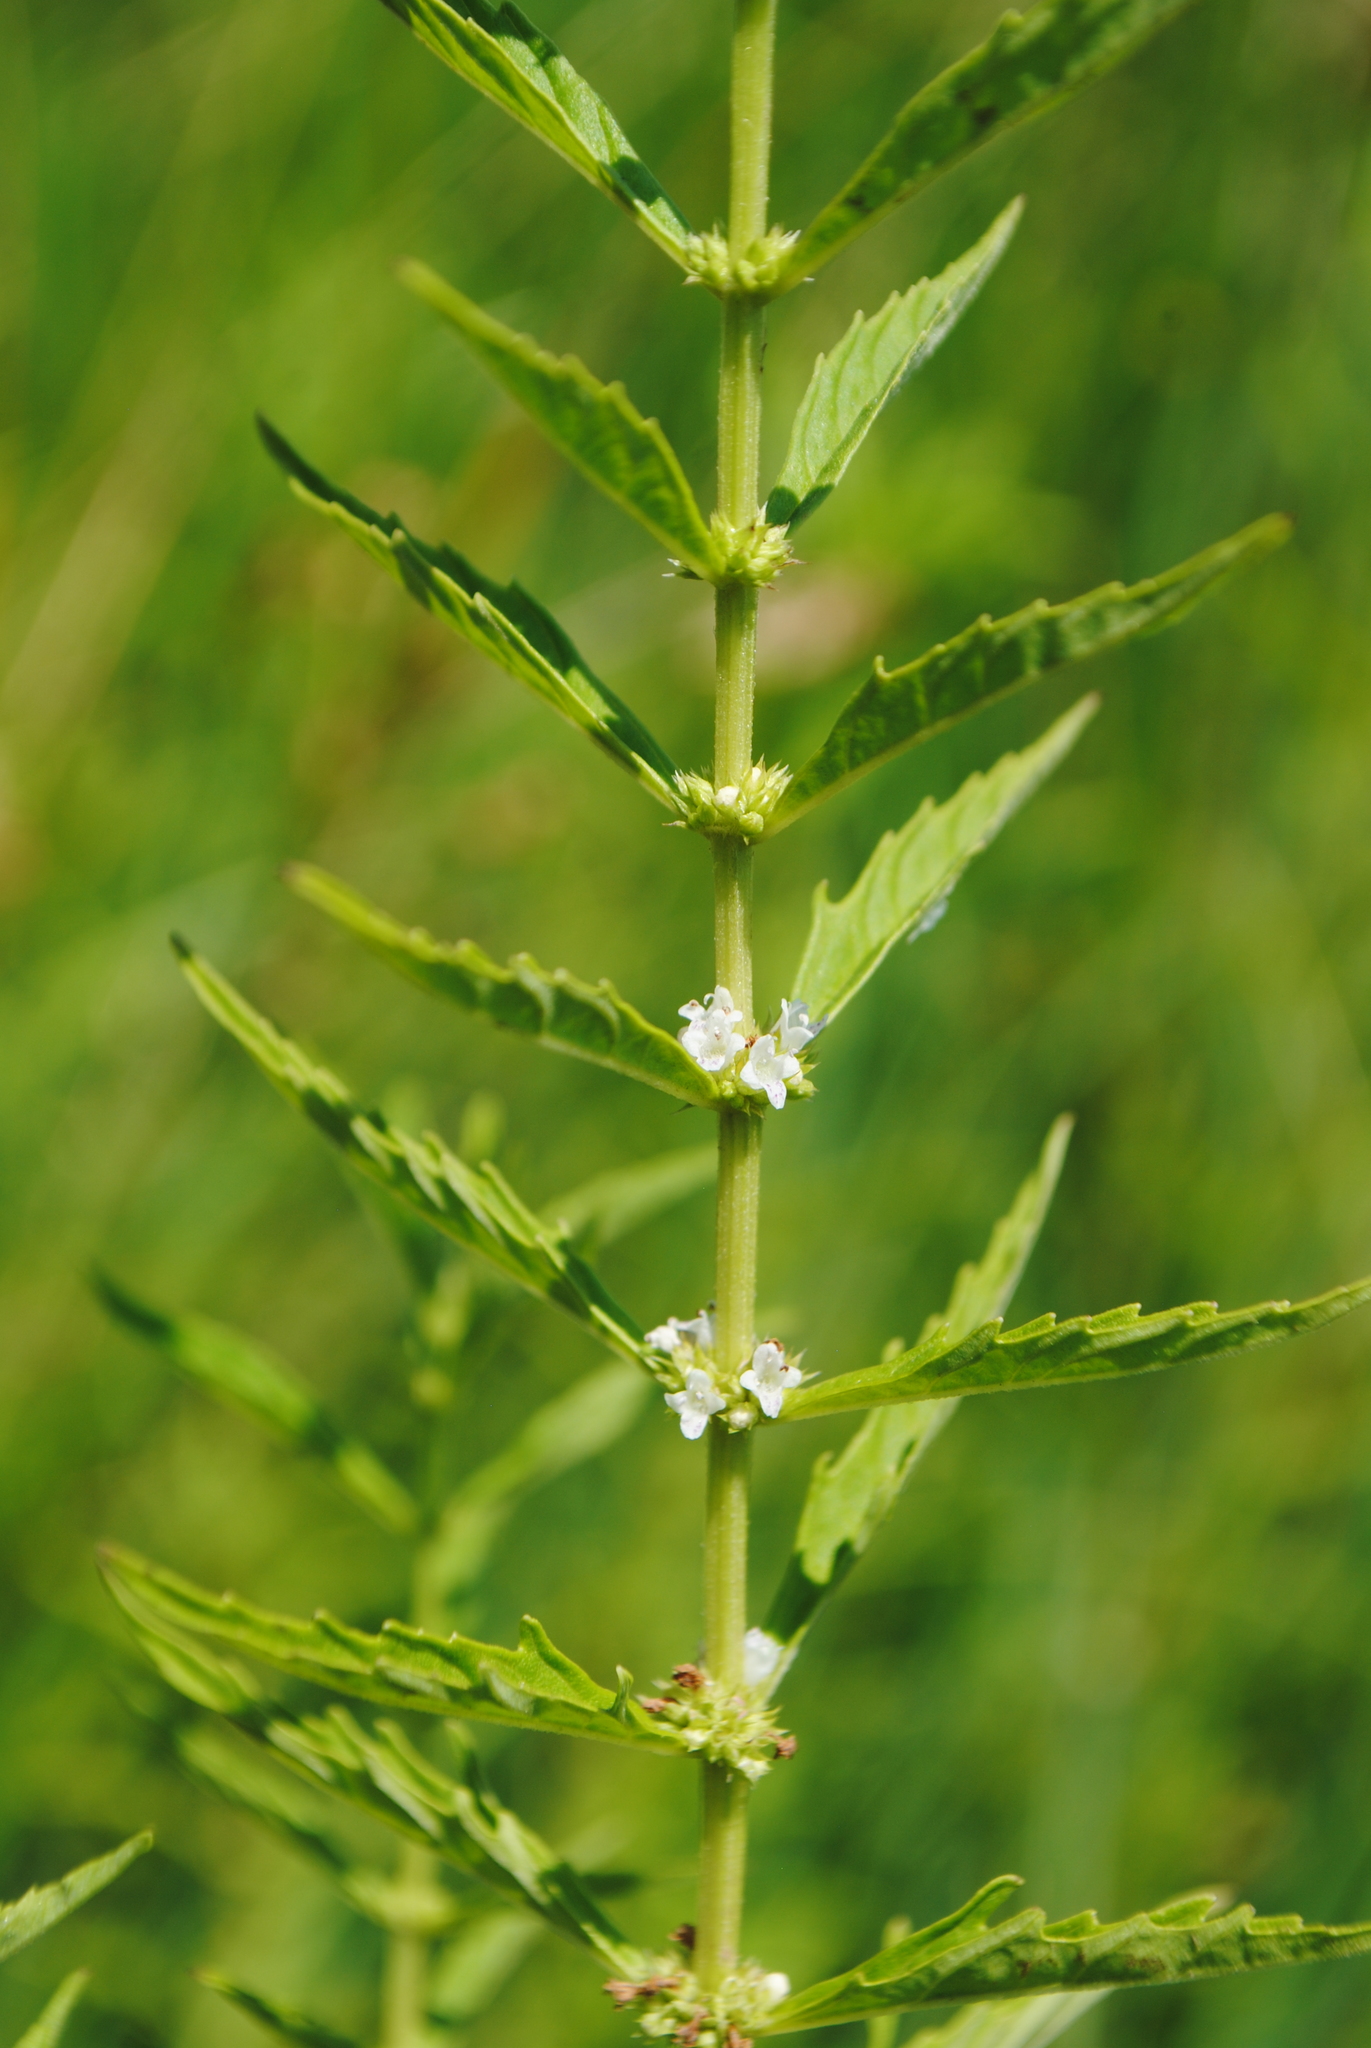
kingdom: Plantae
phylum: Tracheophyta
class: Magnoliopsida
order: Lamiales
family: Lamiaceae
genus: Lycopus
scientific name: Lycopus americanus
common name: American bugleweed
